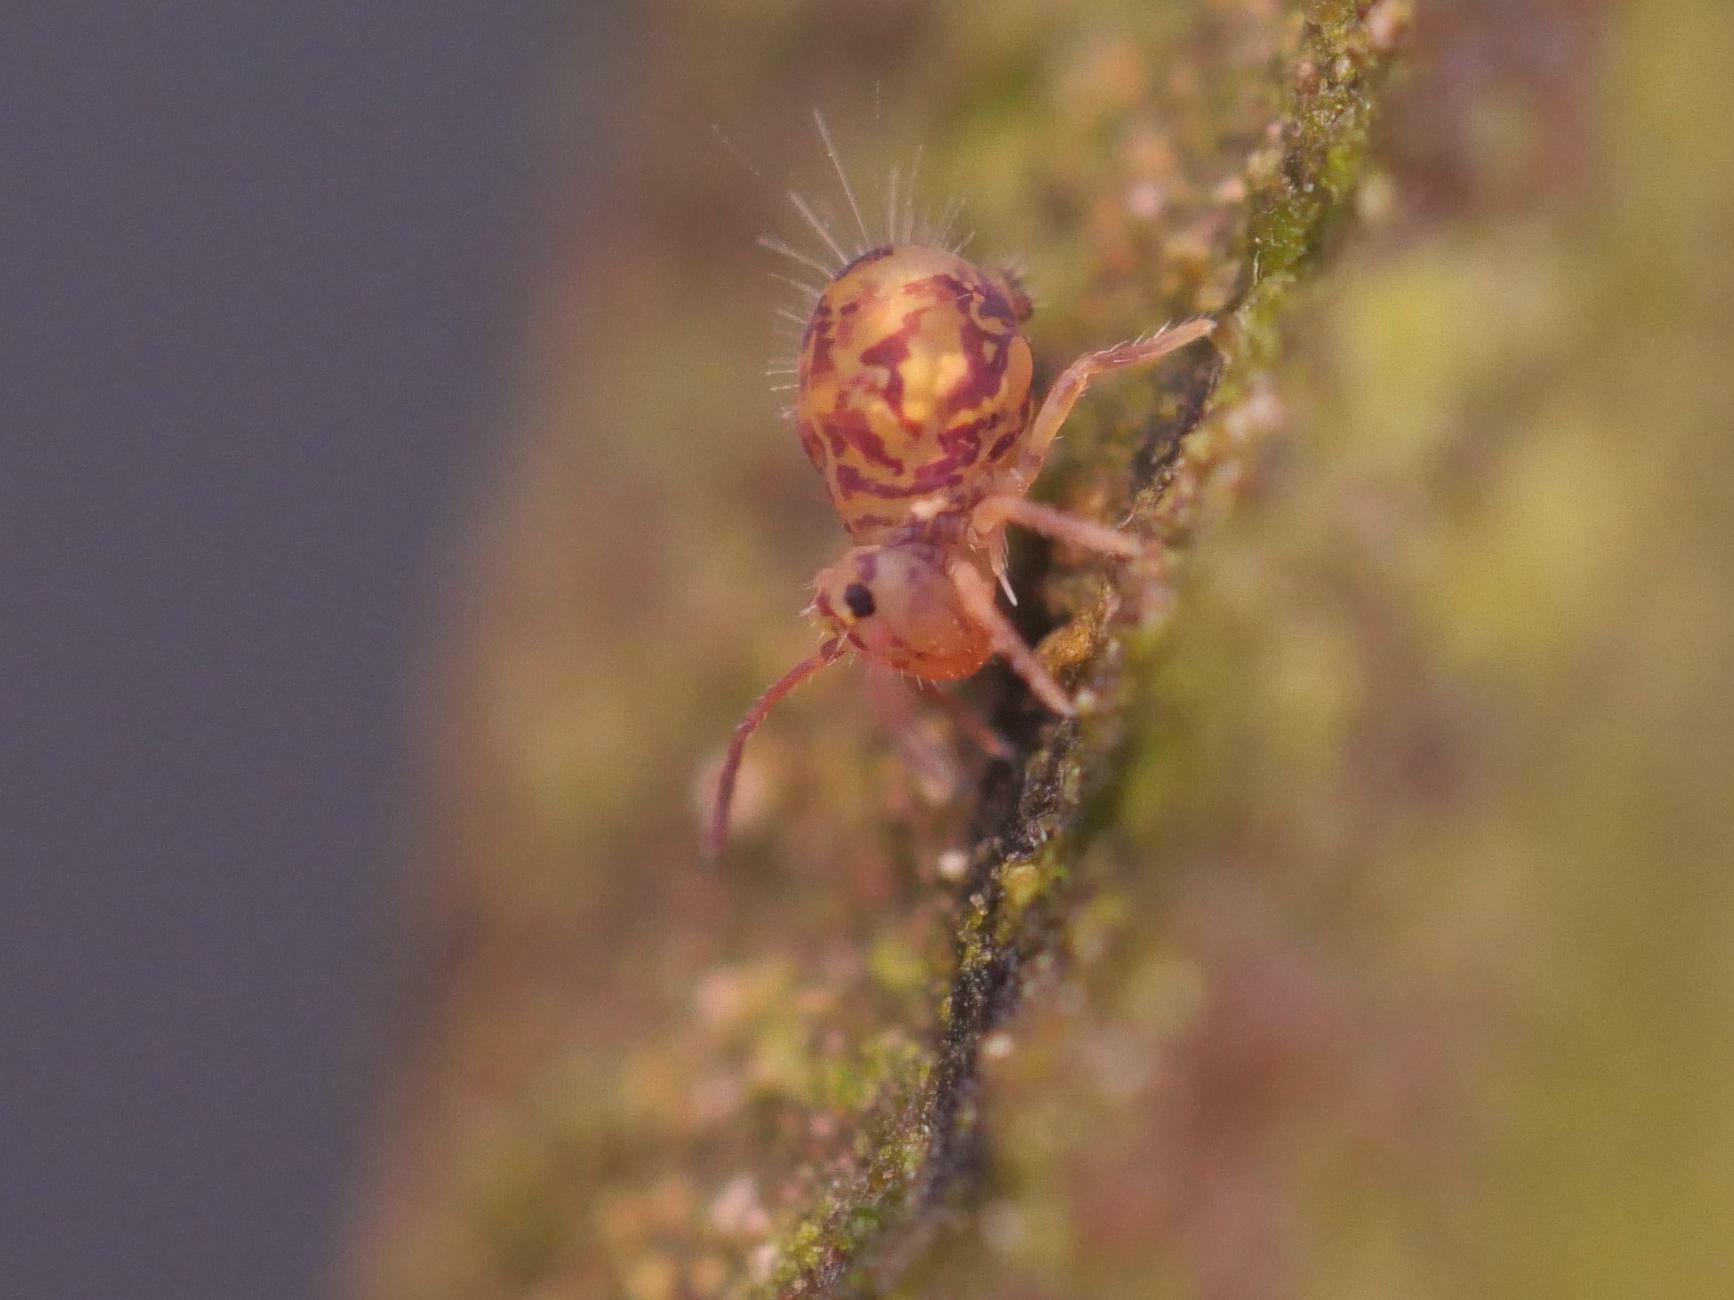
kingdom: Animalia
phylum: Arthropoda
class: Collembola
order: Symphypleona
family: Dicyrtomidae
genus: Dicyrtomina
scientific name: Dicyrtomina ornata
